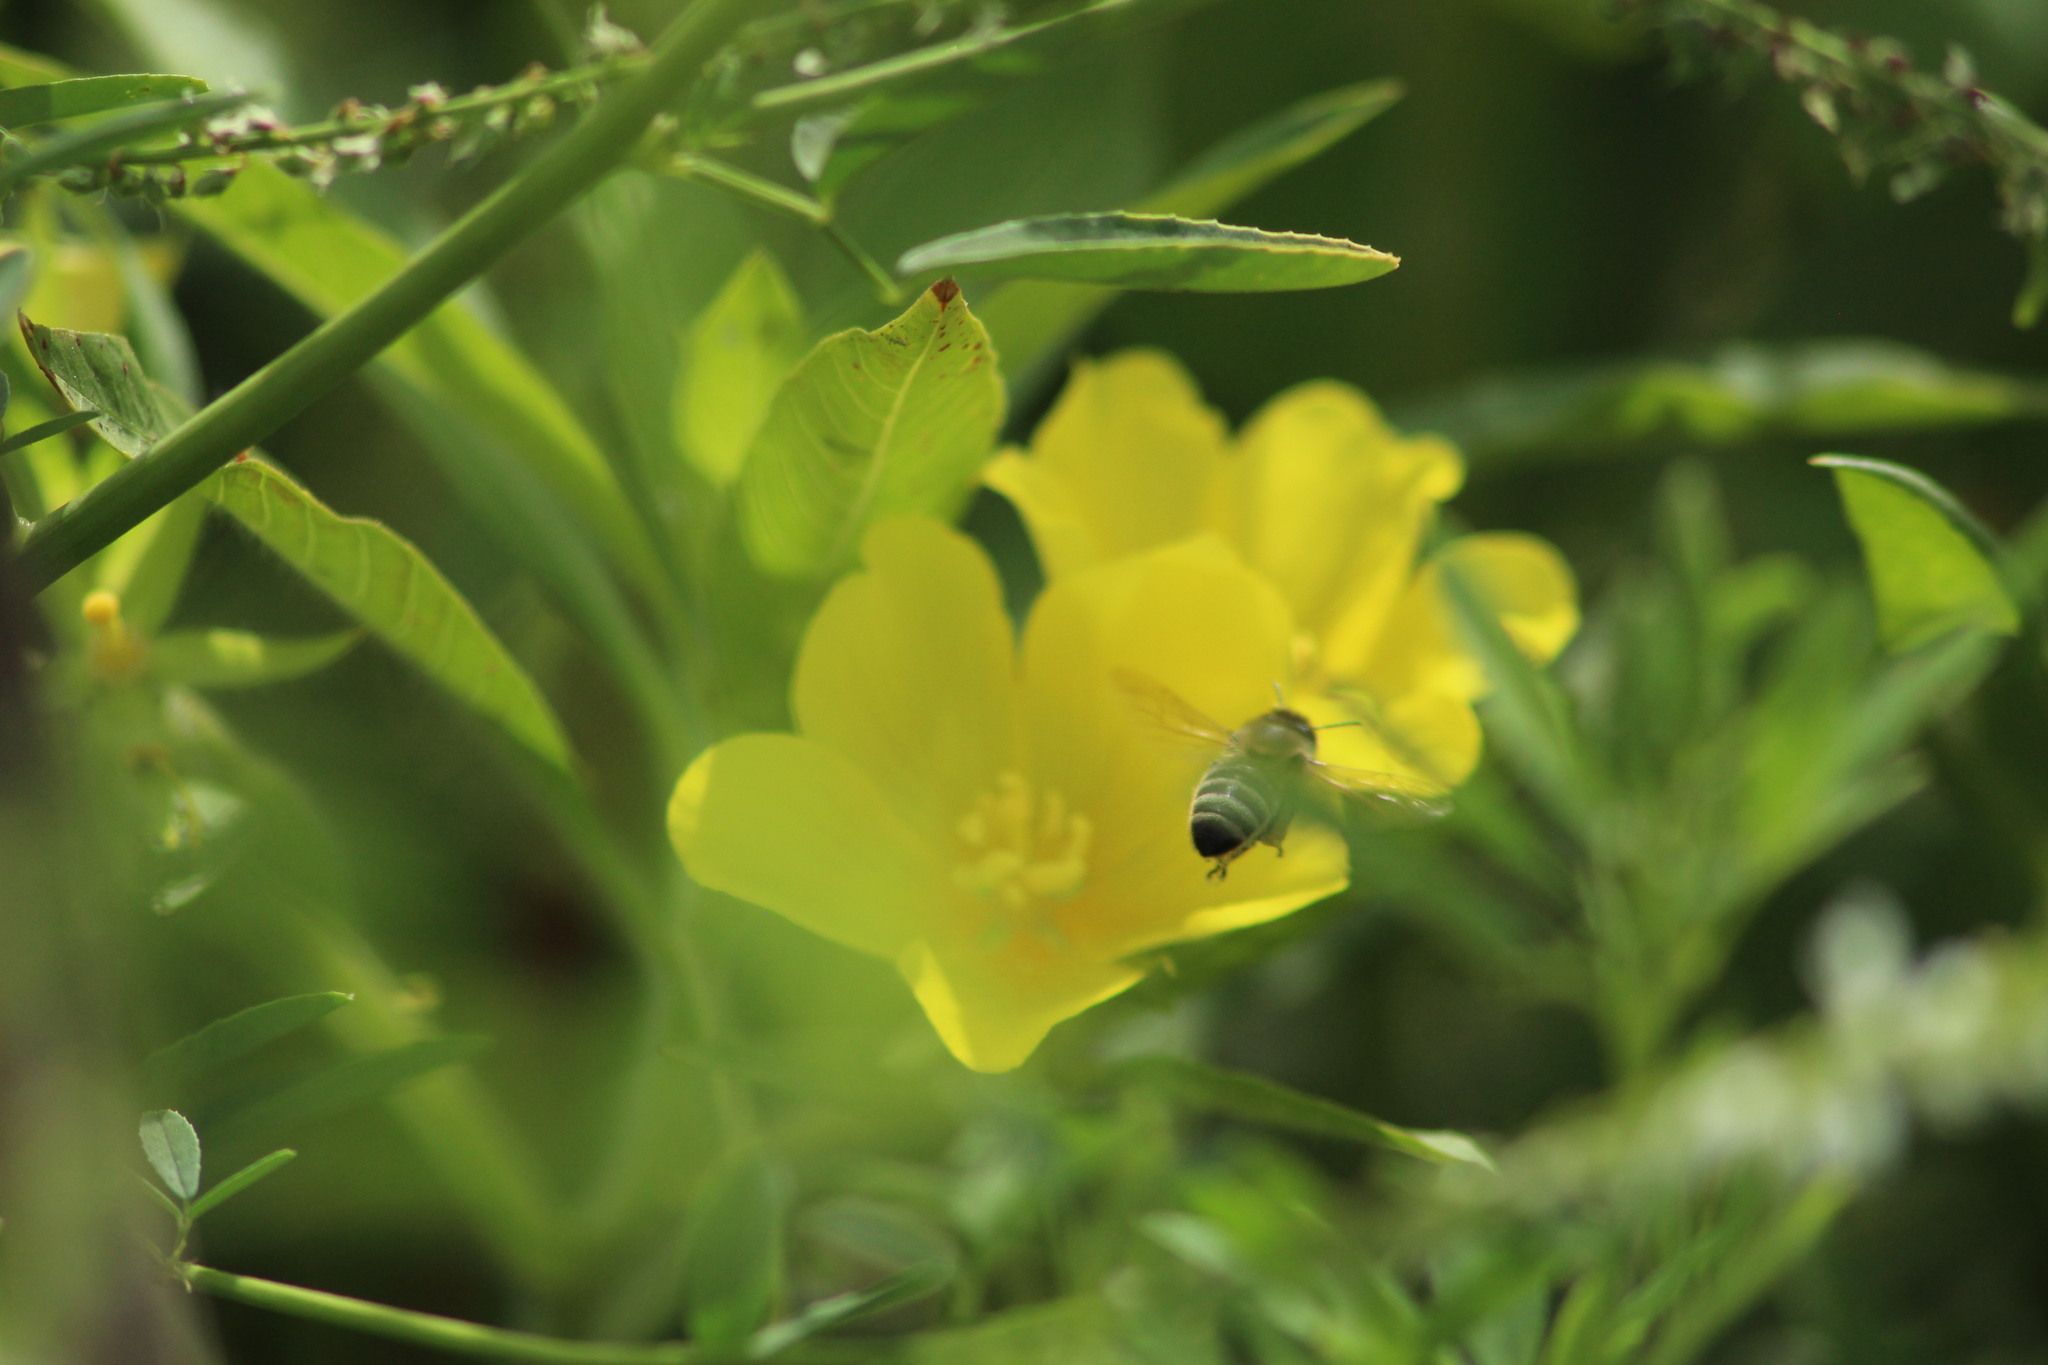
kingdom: Plantae
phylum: Tracheophyta
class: Magnoliopsida
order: Myrtales
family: Onagraceae
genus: Ludwigia
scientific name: Ludwigia peploides
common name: Floating primrose-willow
